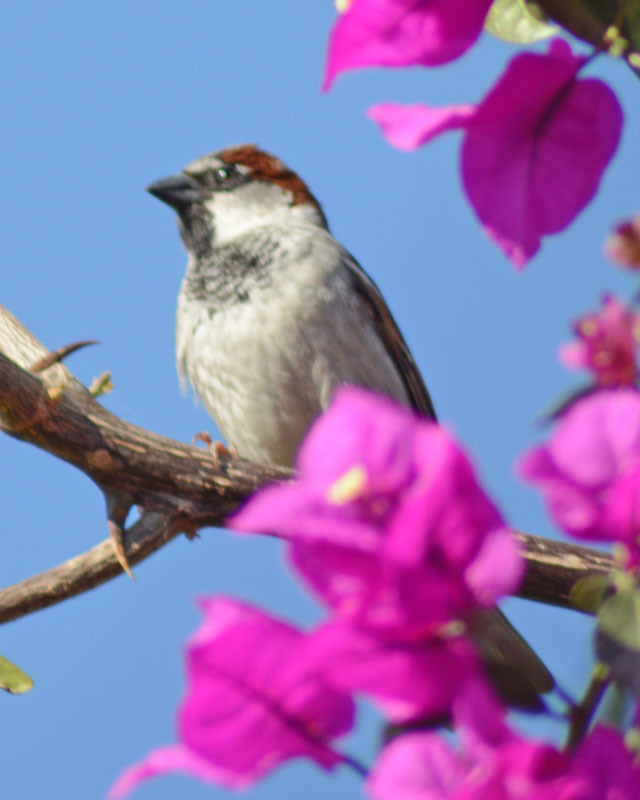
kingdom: Animalia
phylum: Chordata
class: Aves
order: Passeriformes
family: Passeridae
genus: Passer
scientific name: Passer domesticus
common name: House sparrow
